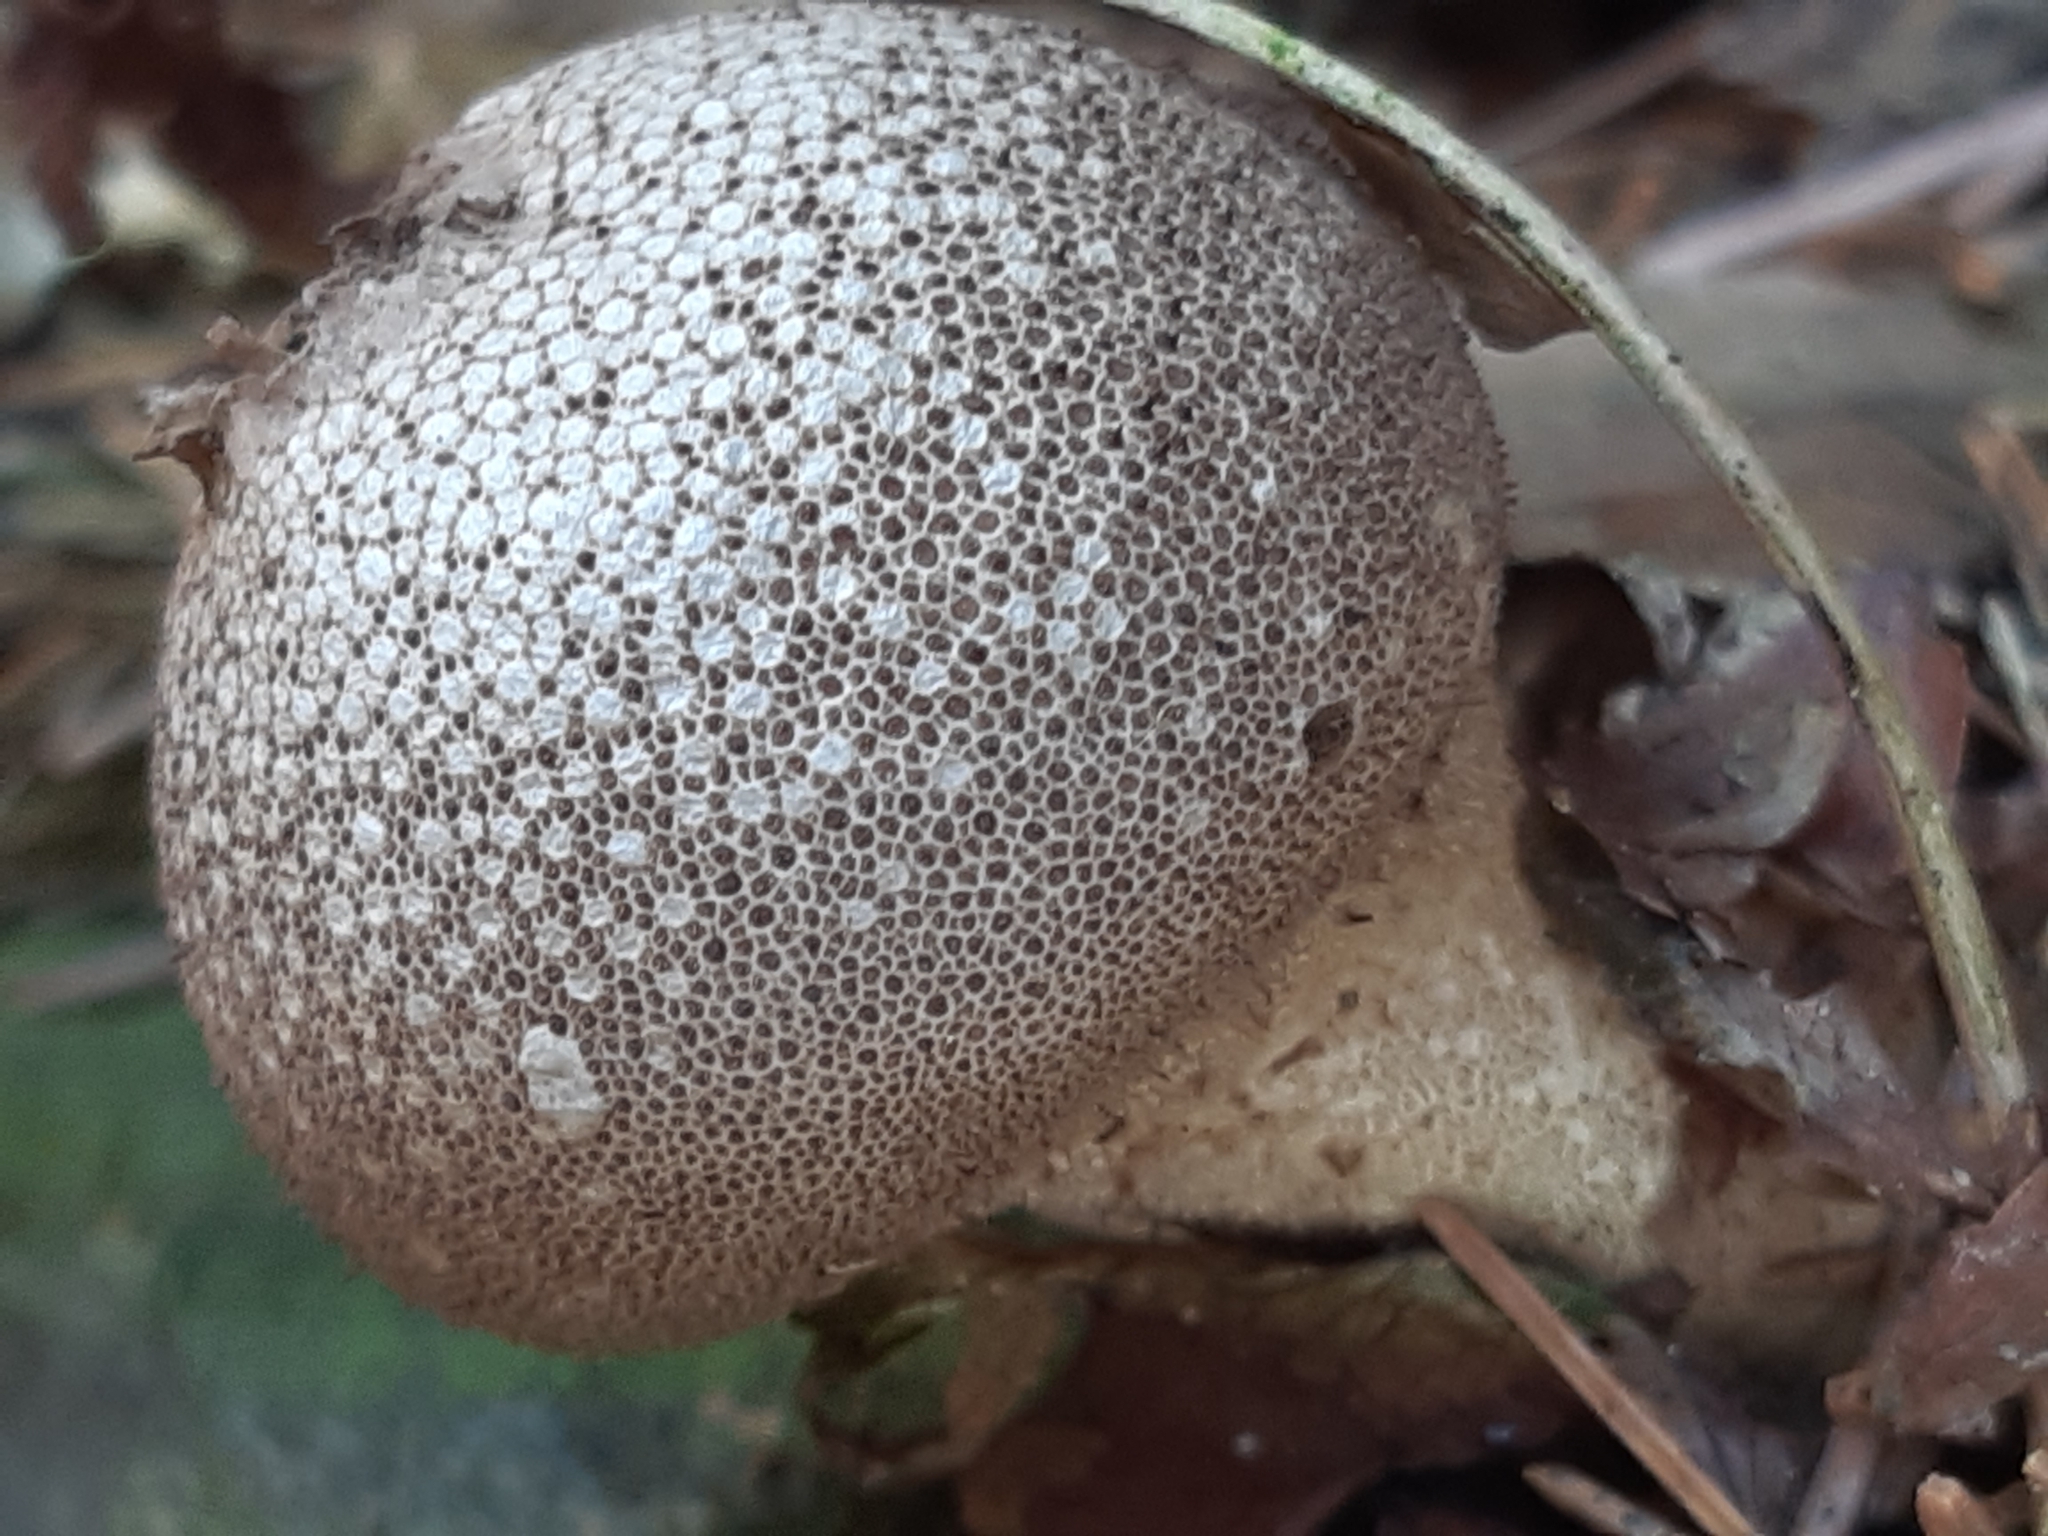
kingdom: Fungi
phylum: Basidiomycota
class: Agaricomycetes
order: Agaricales
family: Lycoperdaceae
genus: Lycoperdon
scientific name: Lycoperdon perlatum
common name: Common puffball
